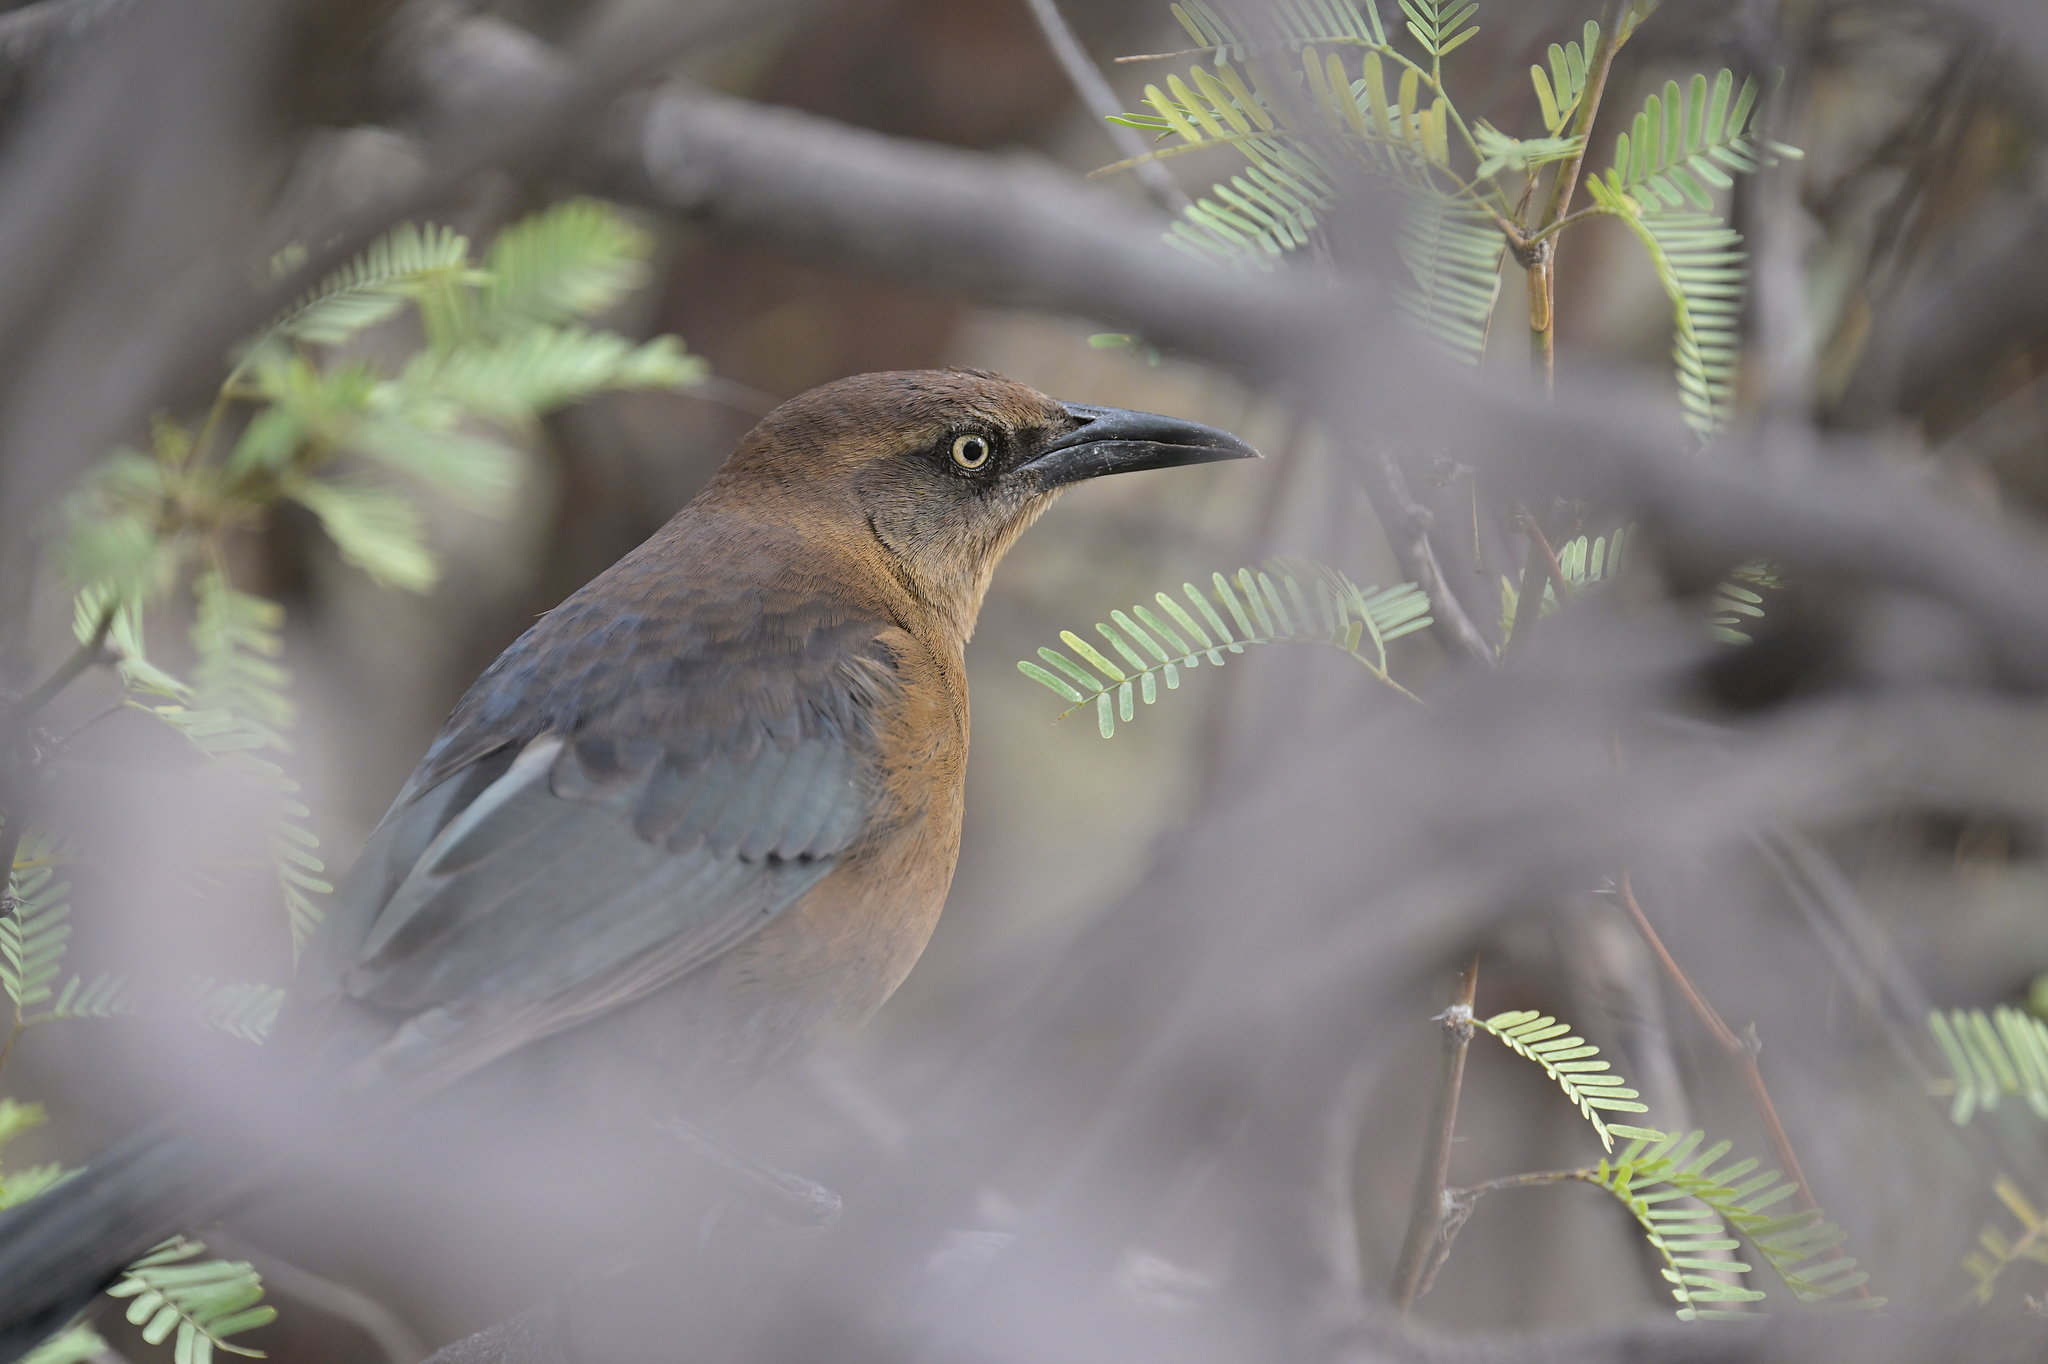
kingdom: Animalia
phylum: Chordata
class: Aves
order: Passeriformes
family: Icteridae
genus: Quiscalus
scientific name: Quiscalus mexicanus
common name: Great-tailed grackle
